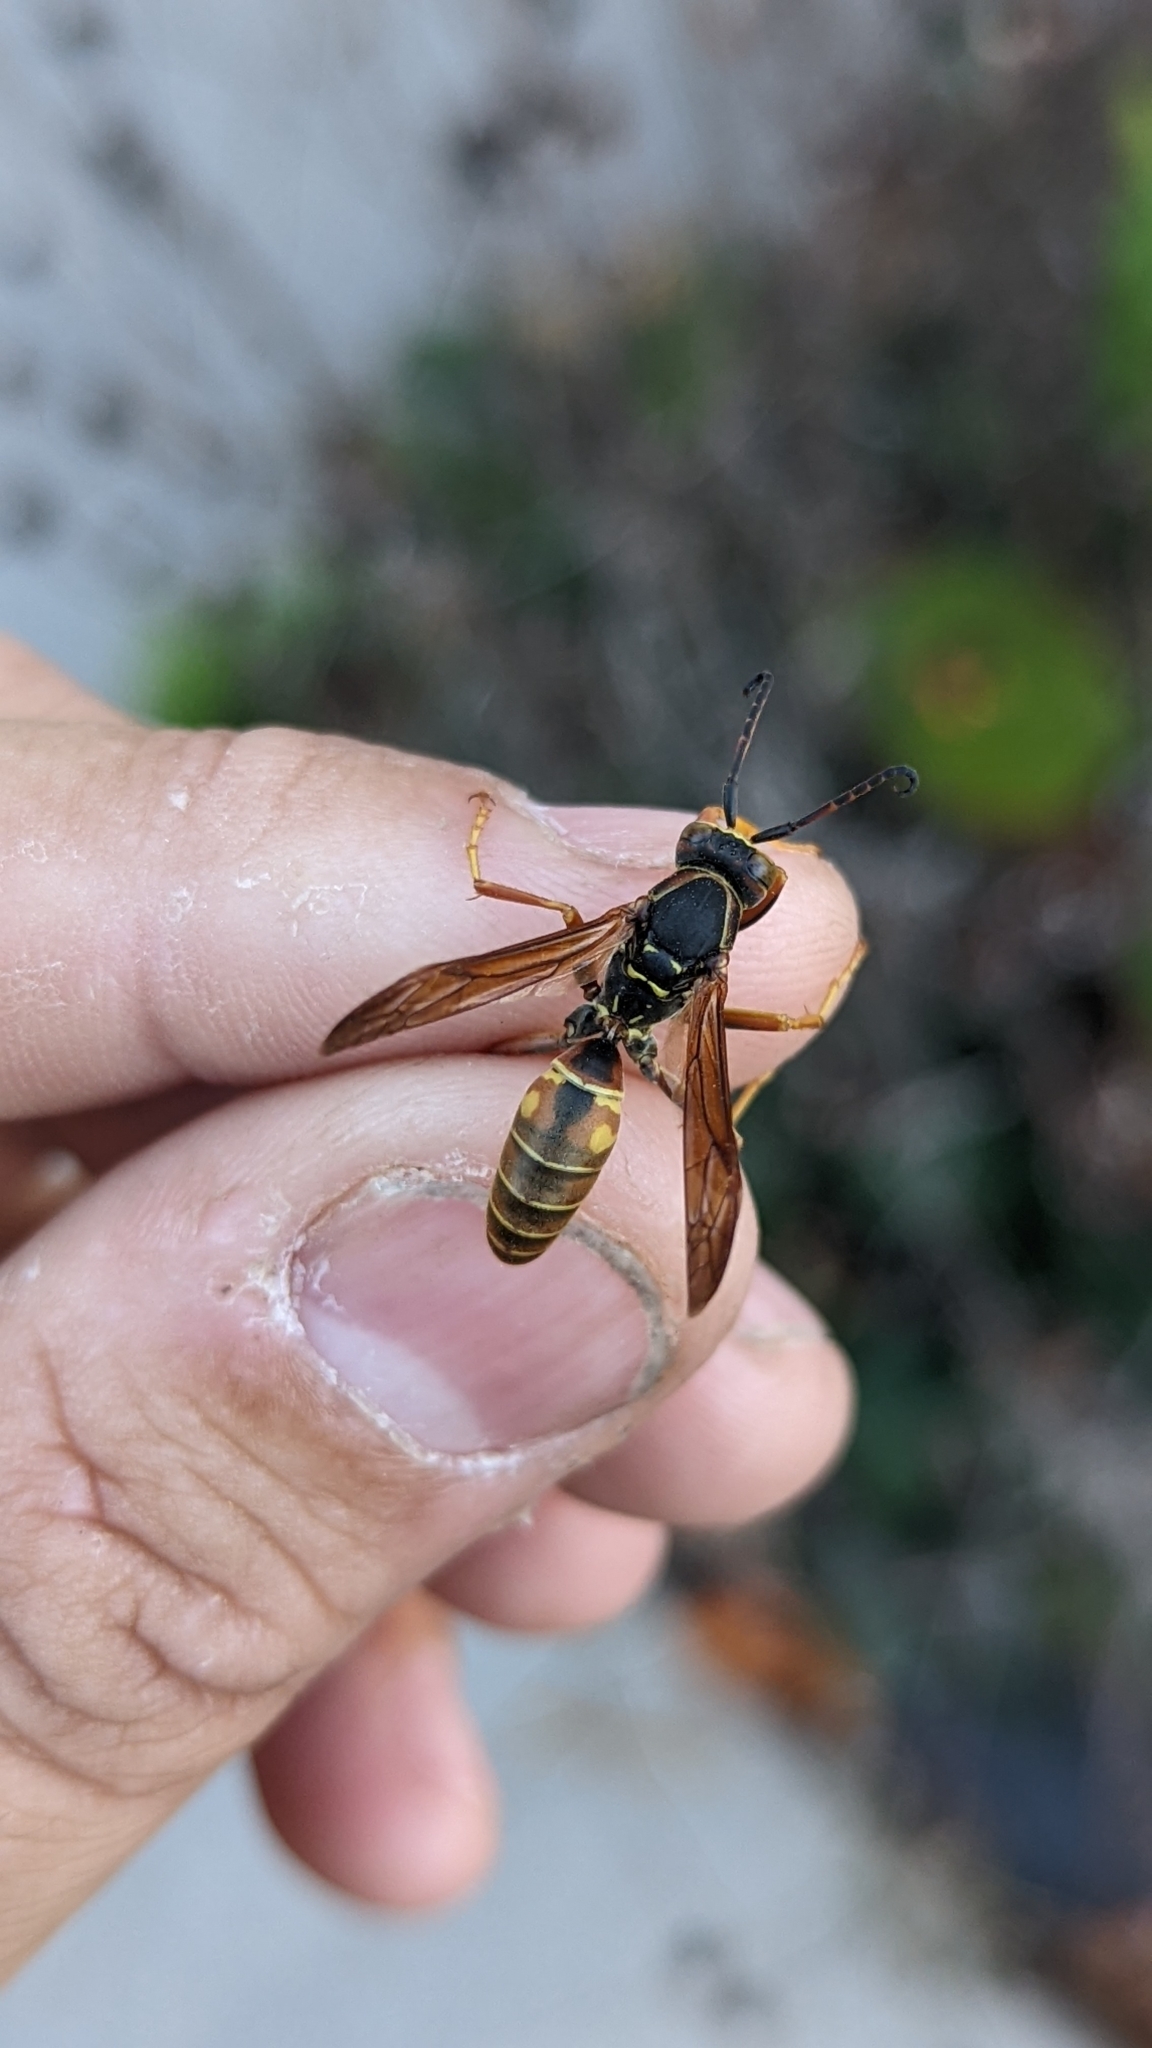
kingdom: Animalia
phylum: Arthropoda
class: Insecta
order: Hymenoptera
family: Eumenidae
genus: Polistes
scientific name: Polistes fuscatus
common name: Dark paper wasp
